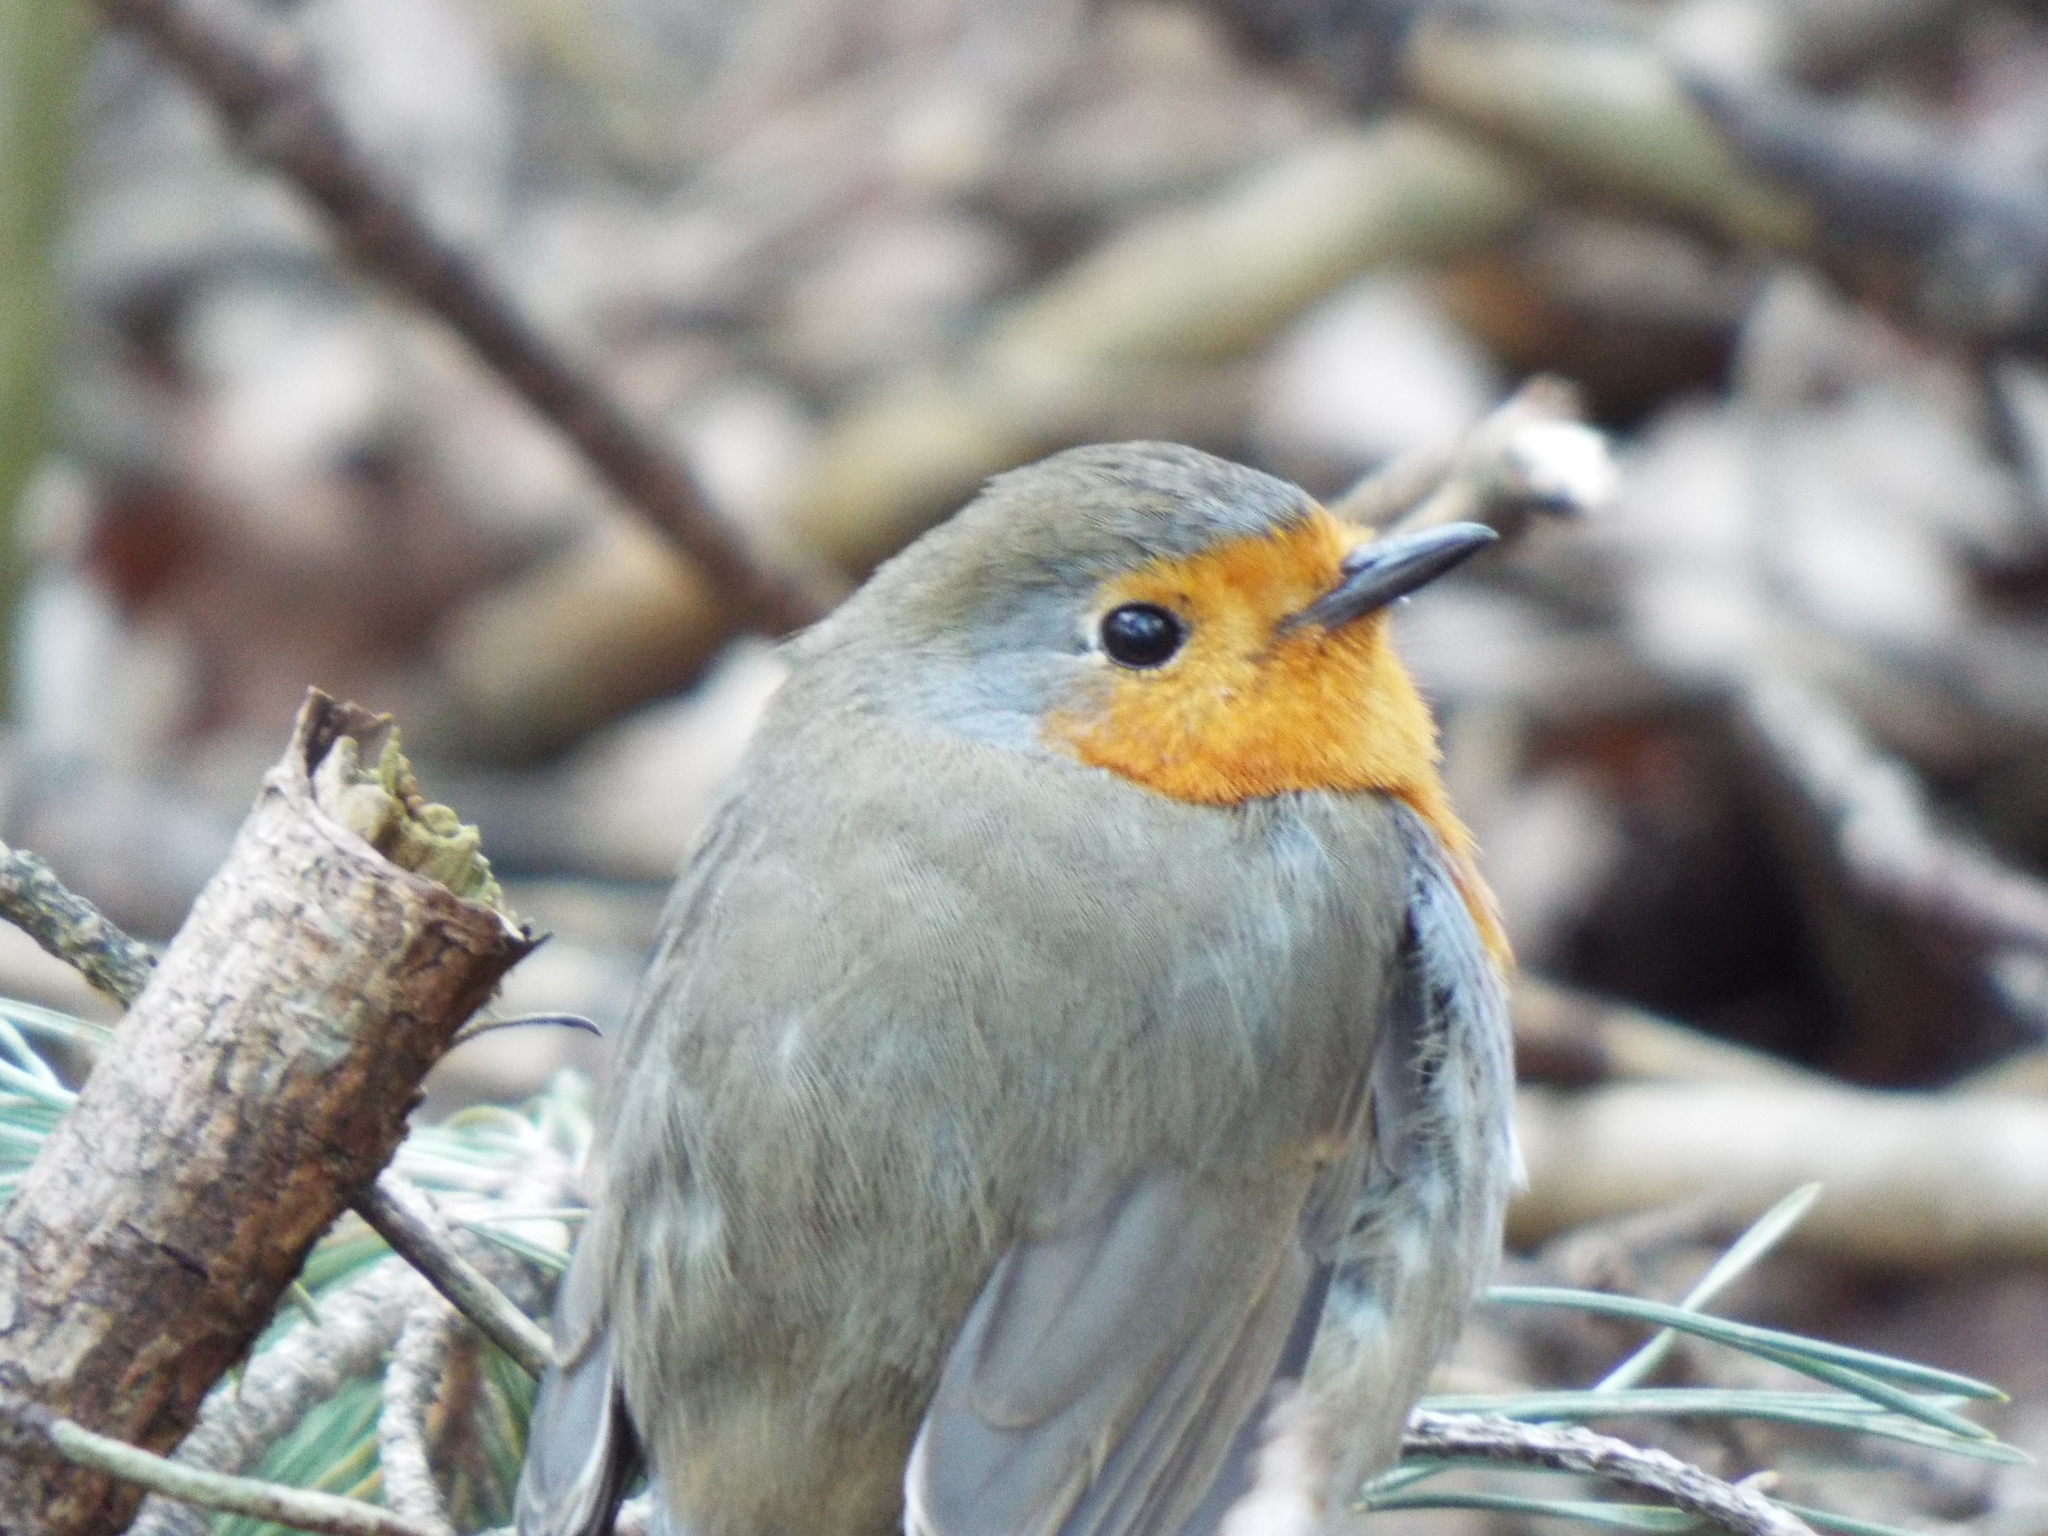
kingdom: Animalia
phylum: Chordata
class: Aves
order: Passeriformes
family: Muscicapidae
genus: Erithacus
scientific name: Erithacus rubecula
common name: European robin
